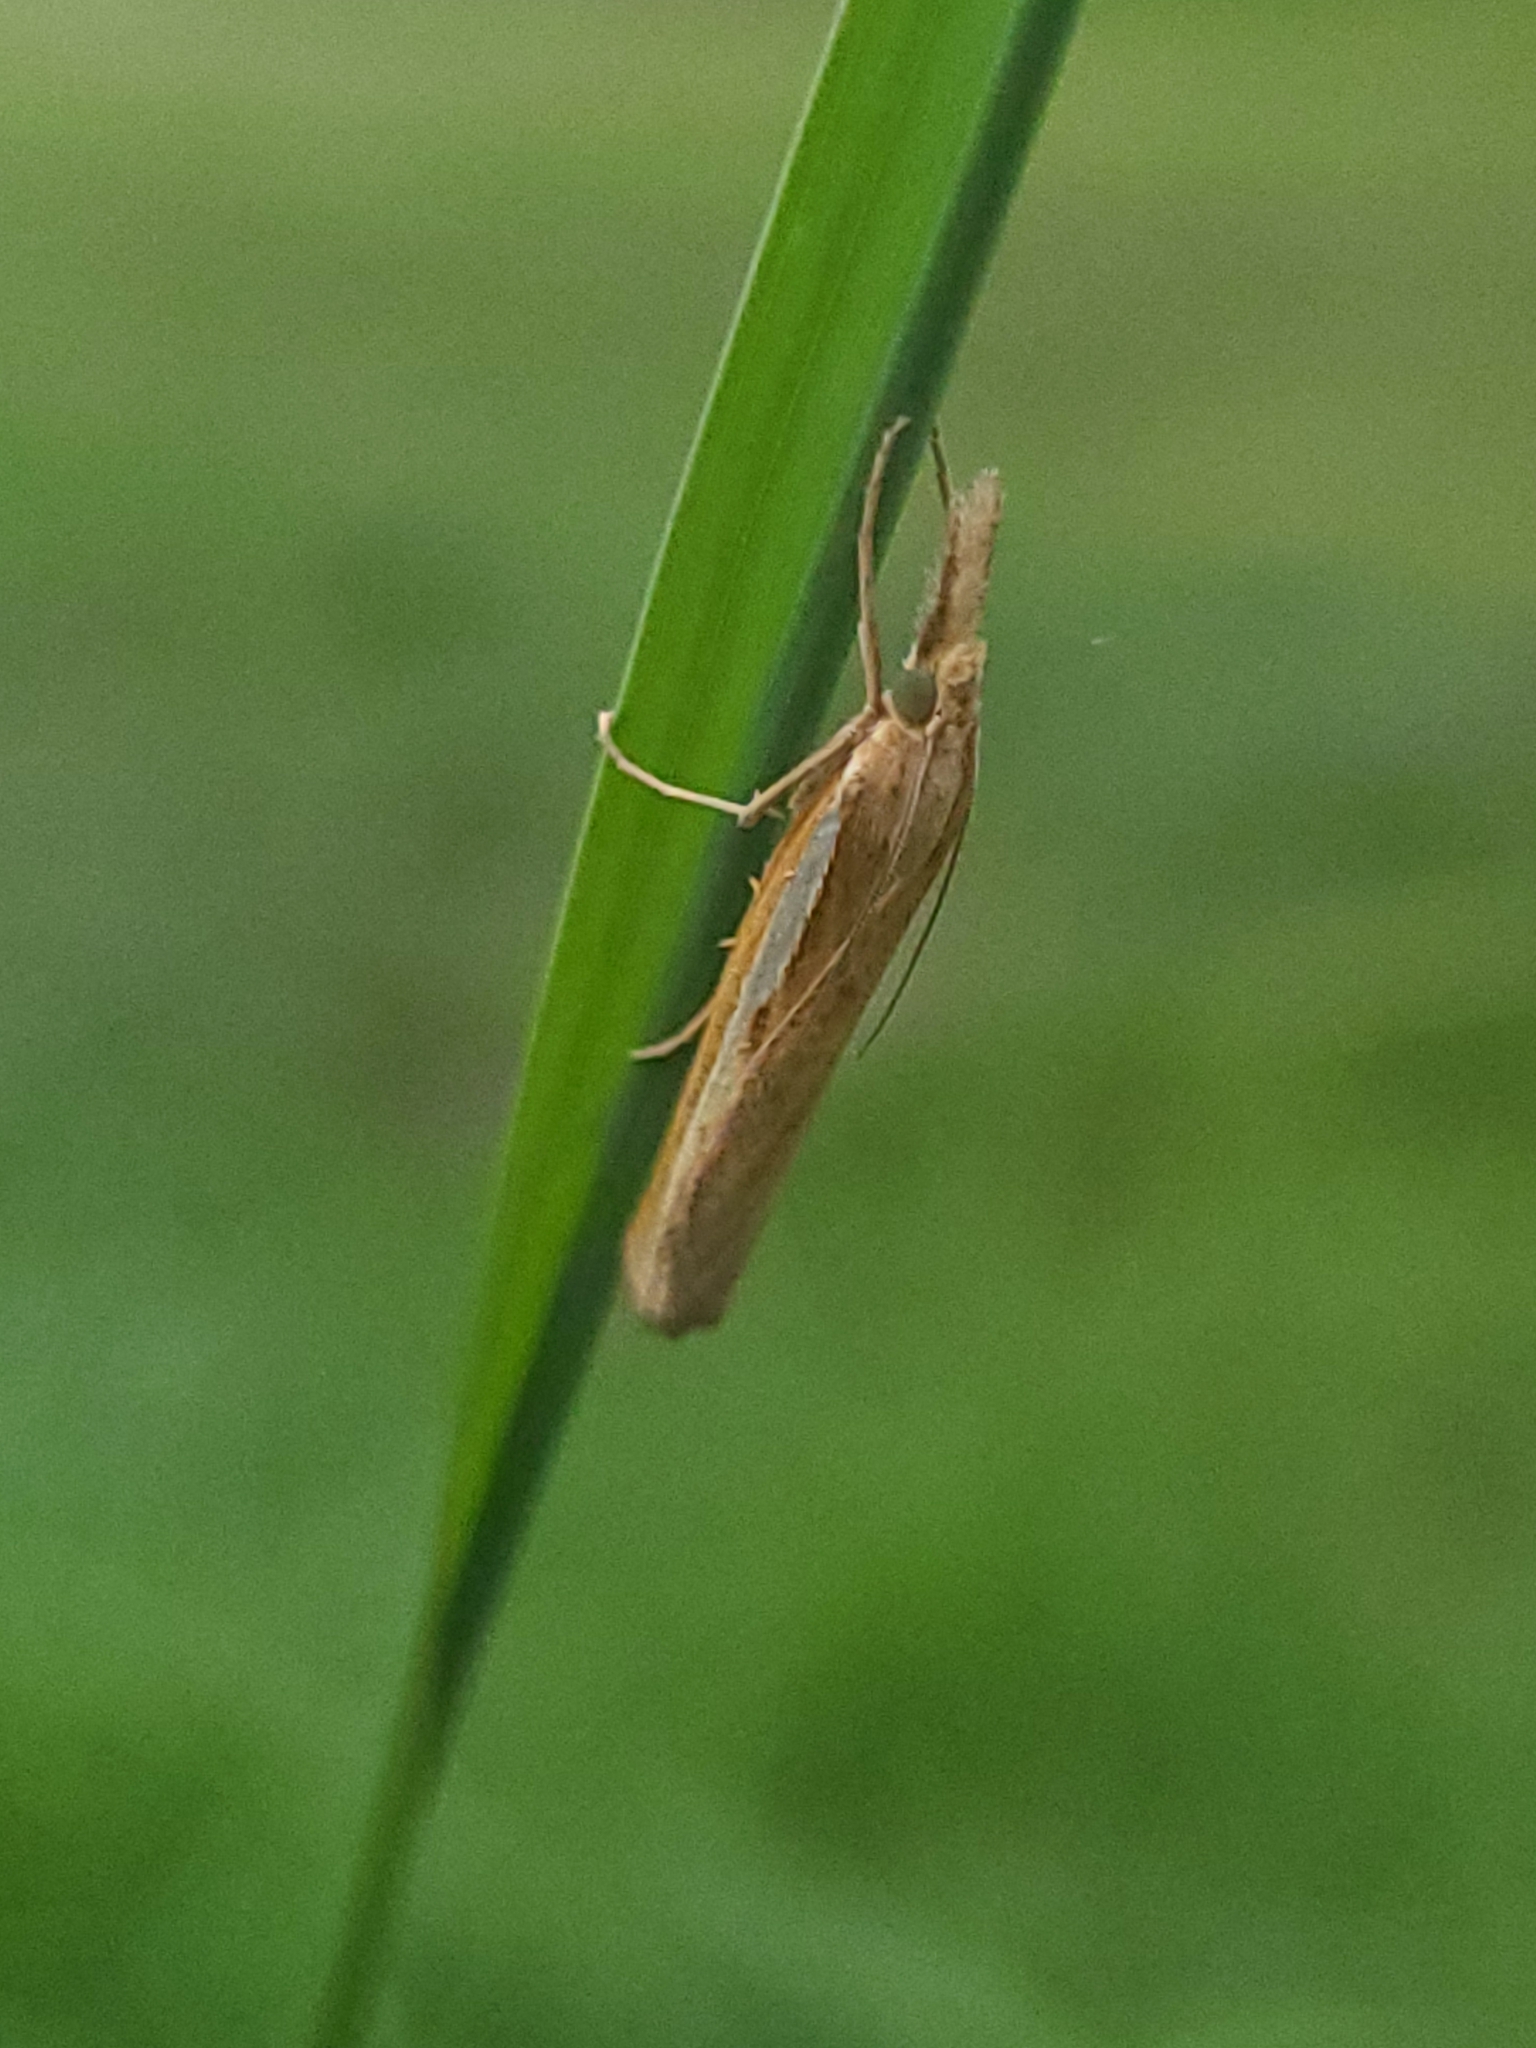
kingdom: Animalia
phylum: Arthropoda
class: Insecta
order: Lepidoptera
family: Crambidae
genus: Agriphila
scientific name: Agriphila tristellus
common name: Common grass-veneer
